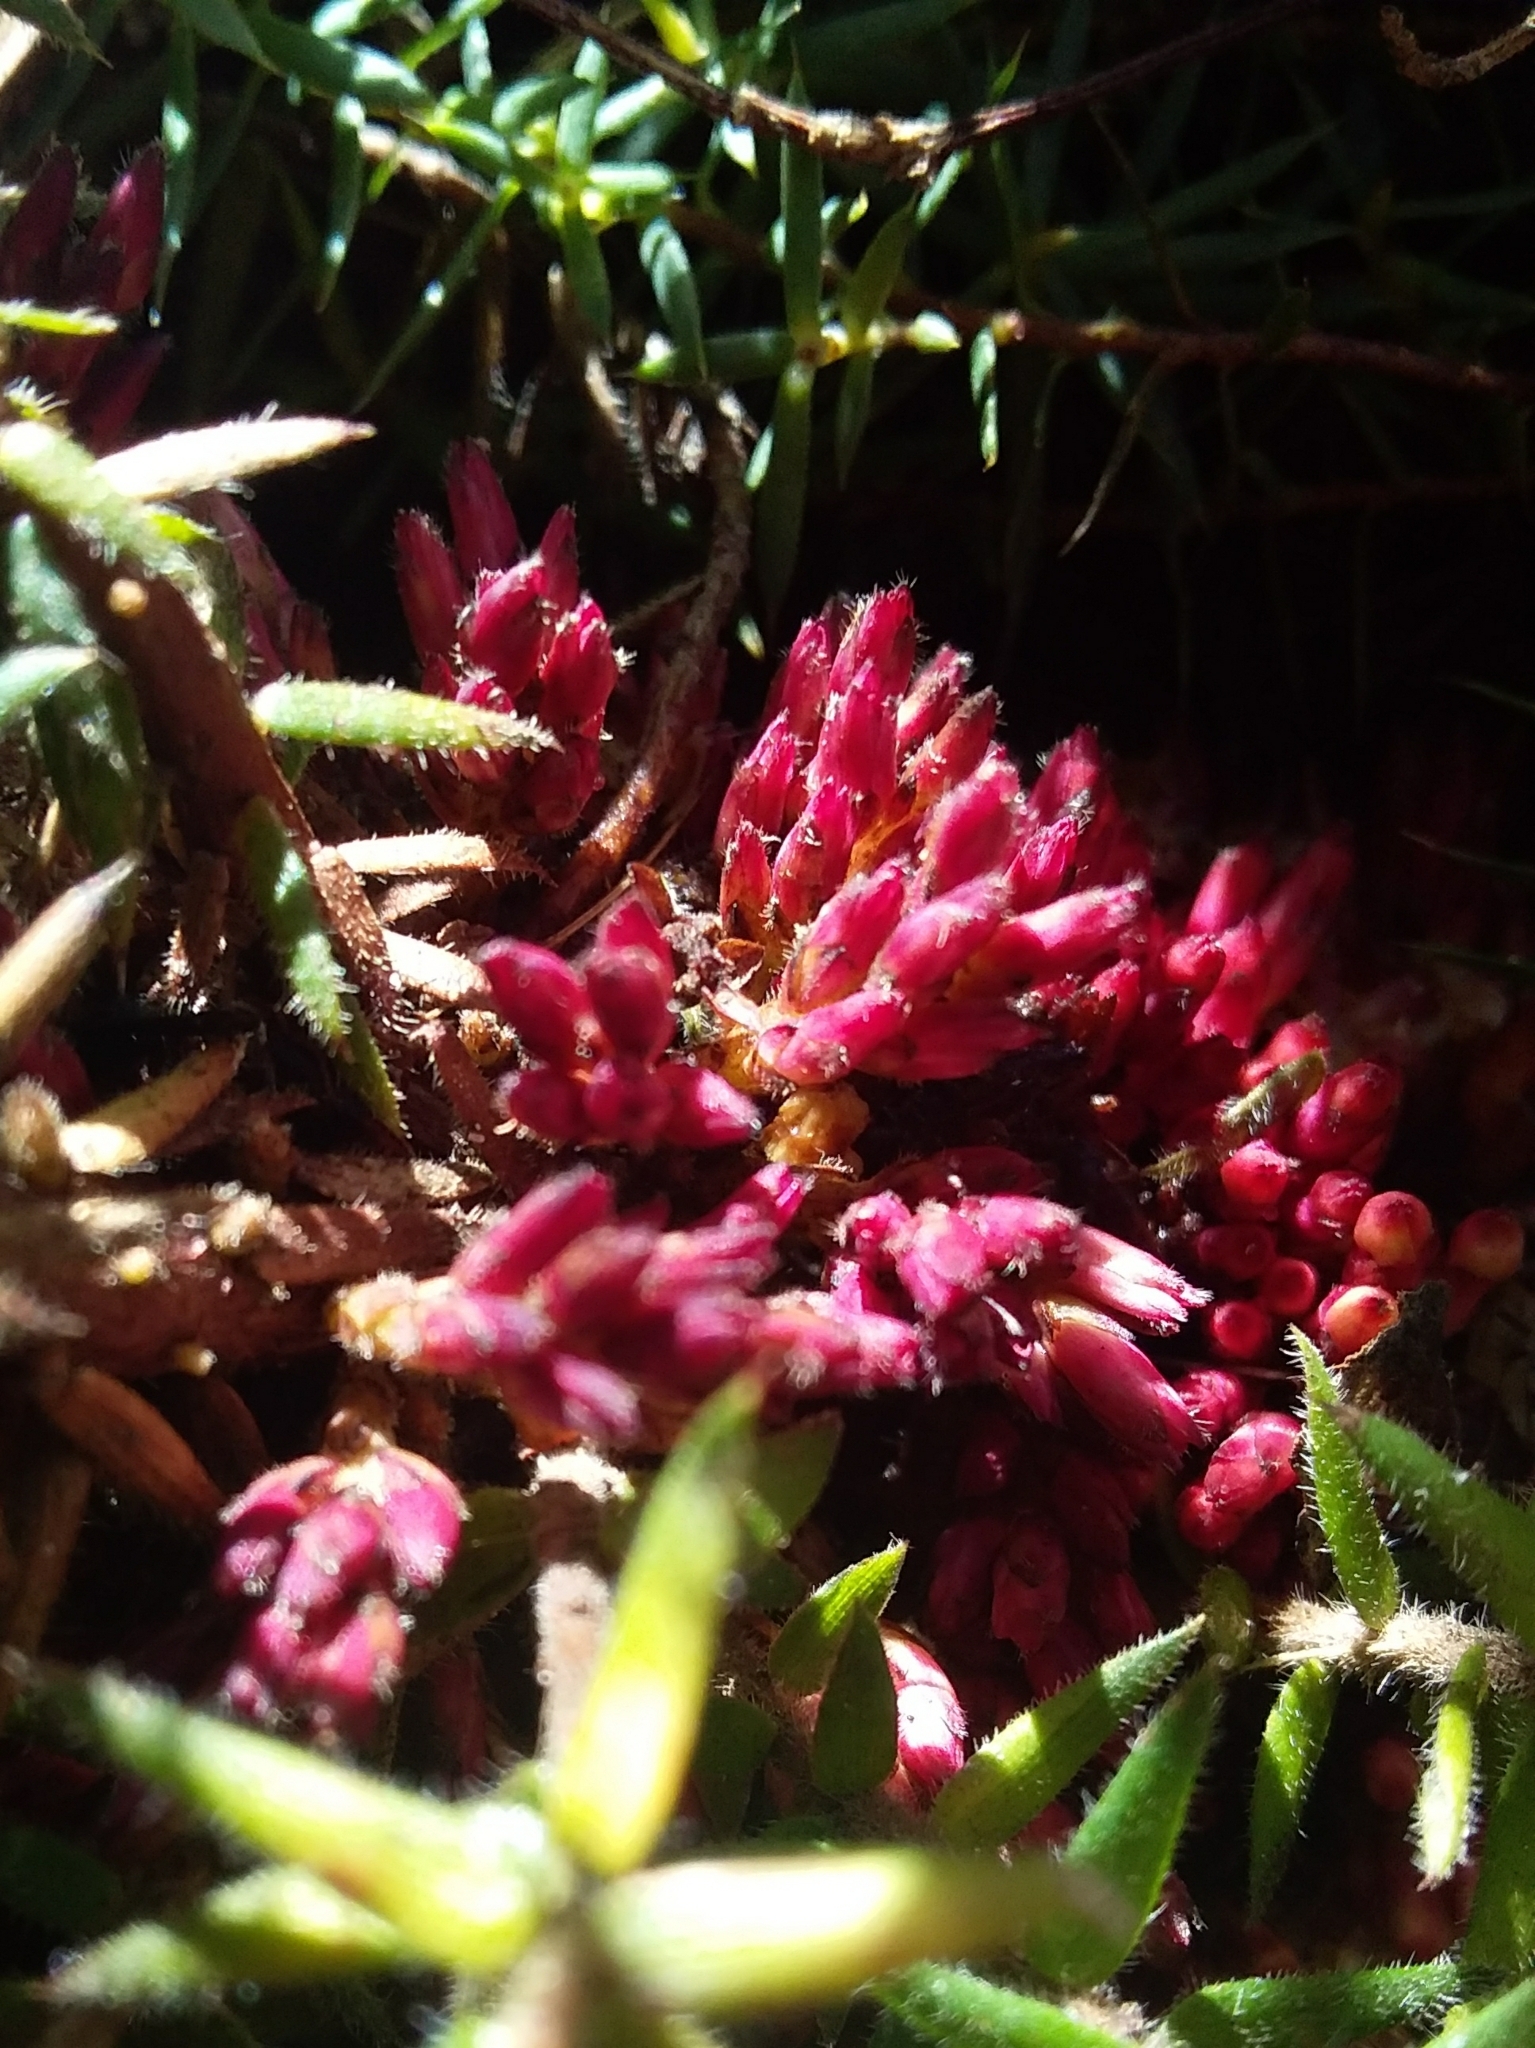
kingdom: Plantae
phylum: Tracheophyta
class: Magnoliopsida
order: Ericales
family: Ericaceae
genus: Acrotriche
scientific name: Acrotriche fasciculiflora
